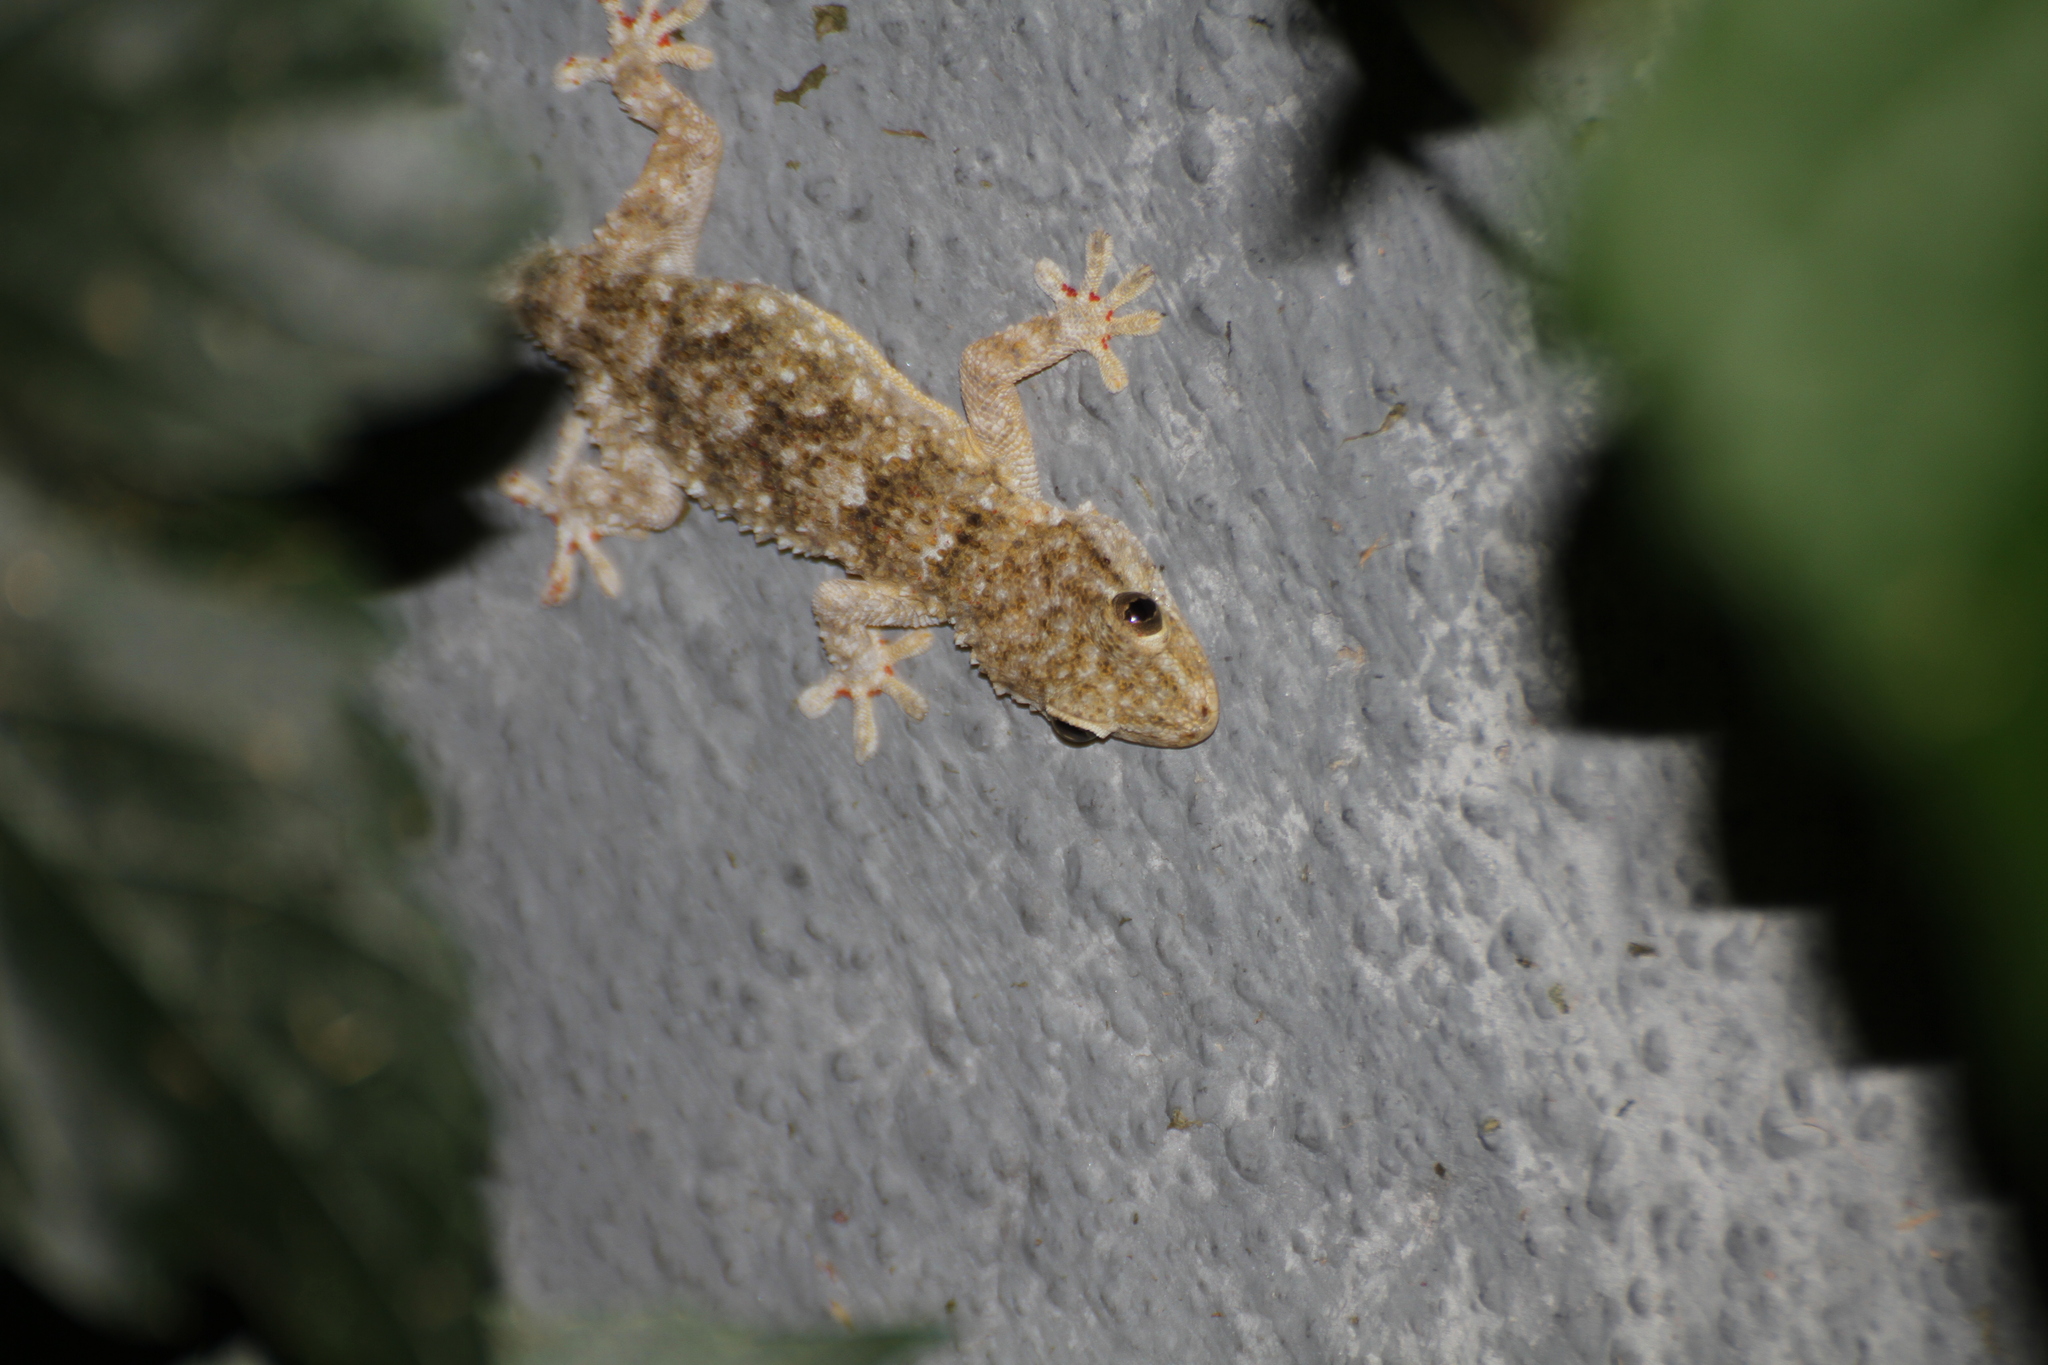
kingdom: Animalia
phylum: Chordata
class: Squamata
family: Phyllodactylidae
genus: Tarentola
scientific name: Tarentola mauritanica
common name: Moorish gecko
